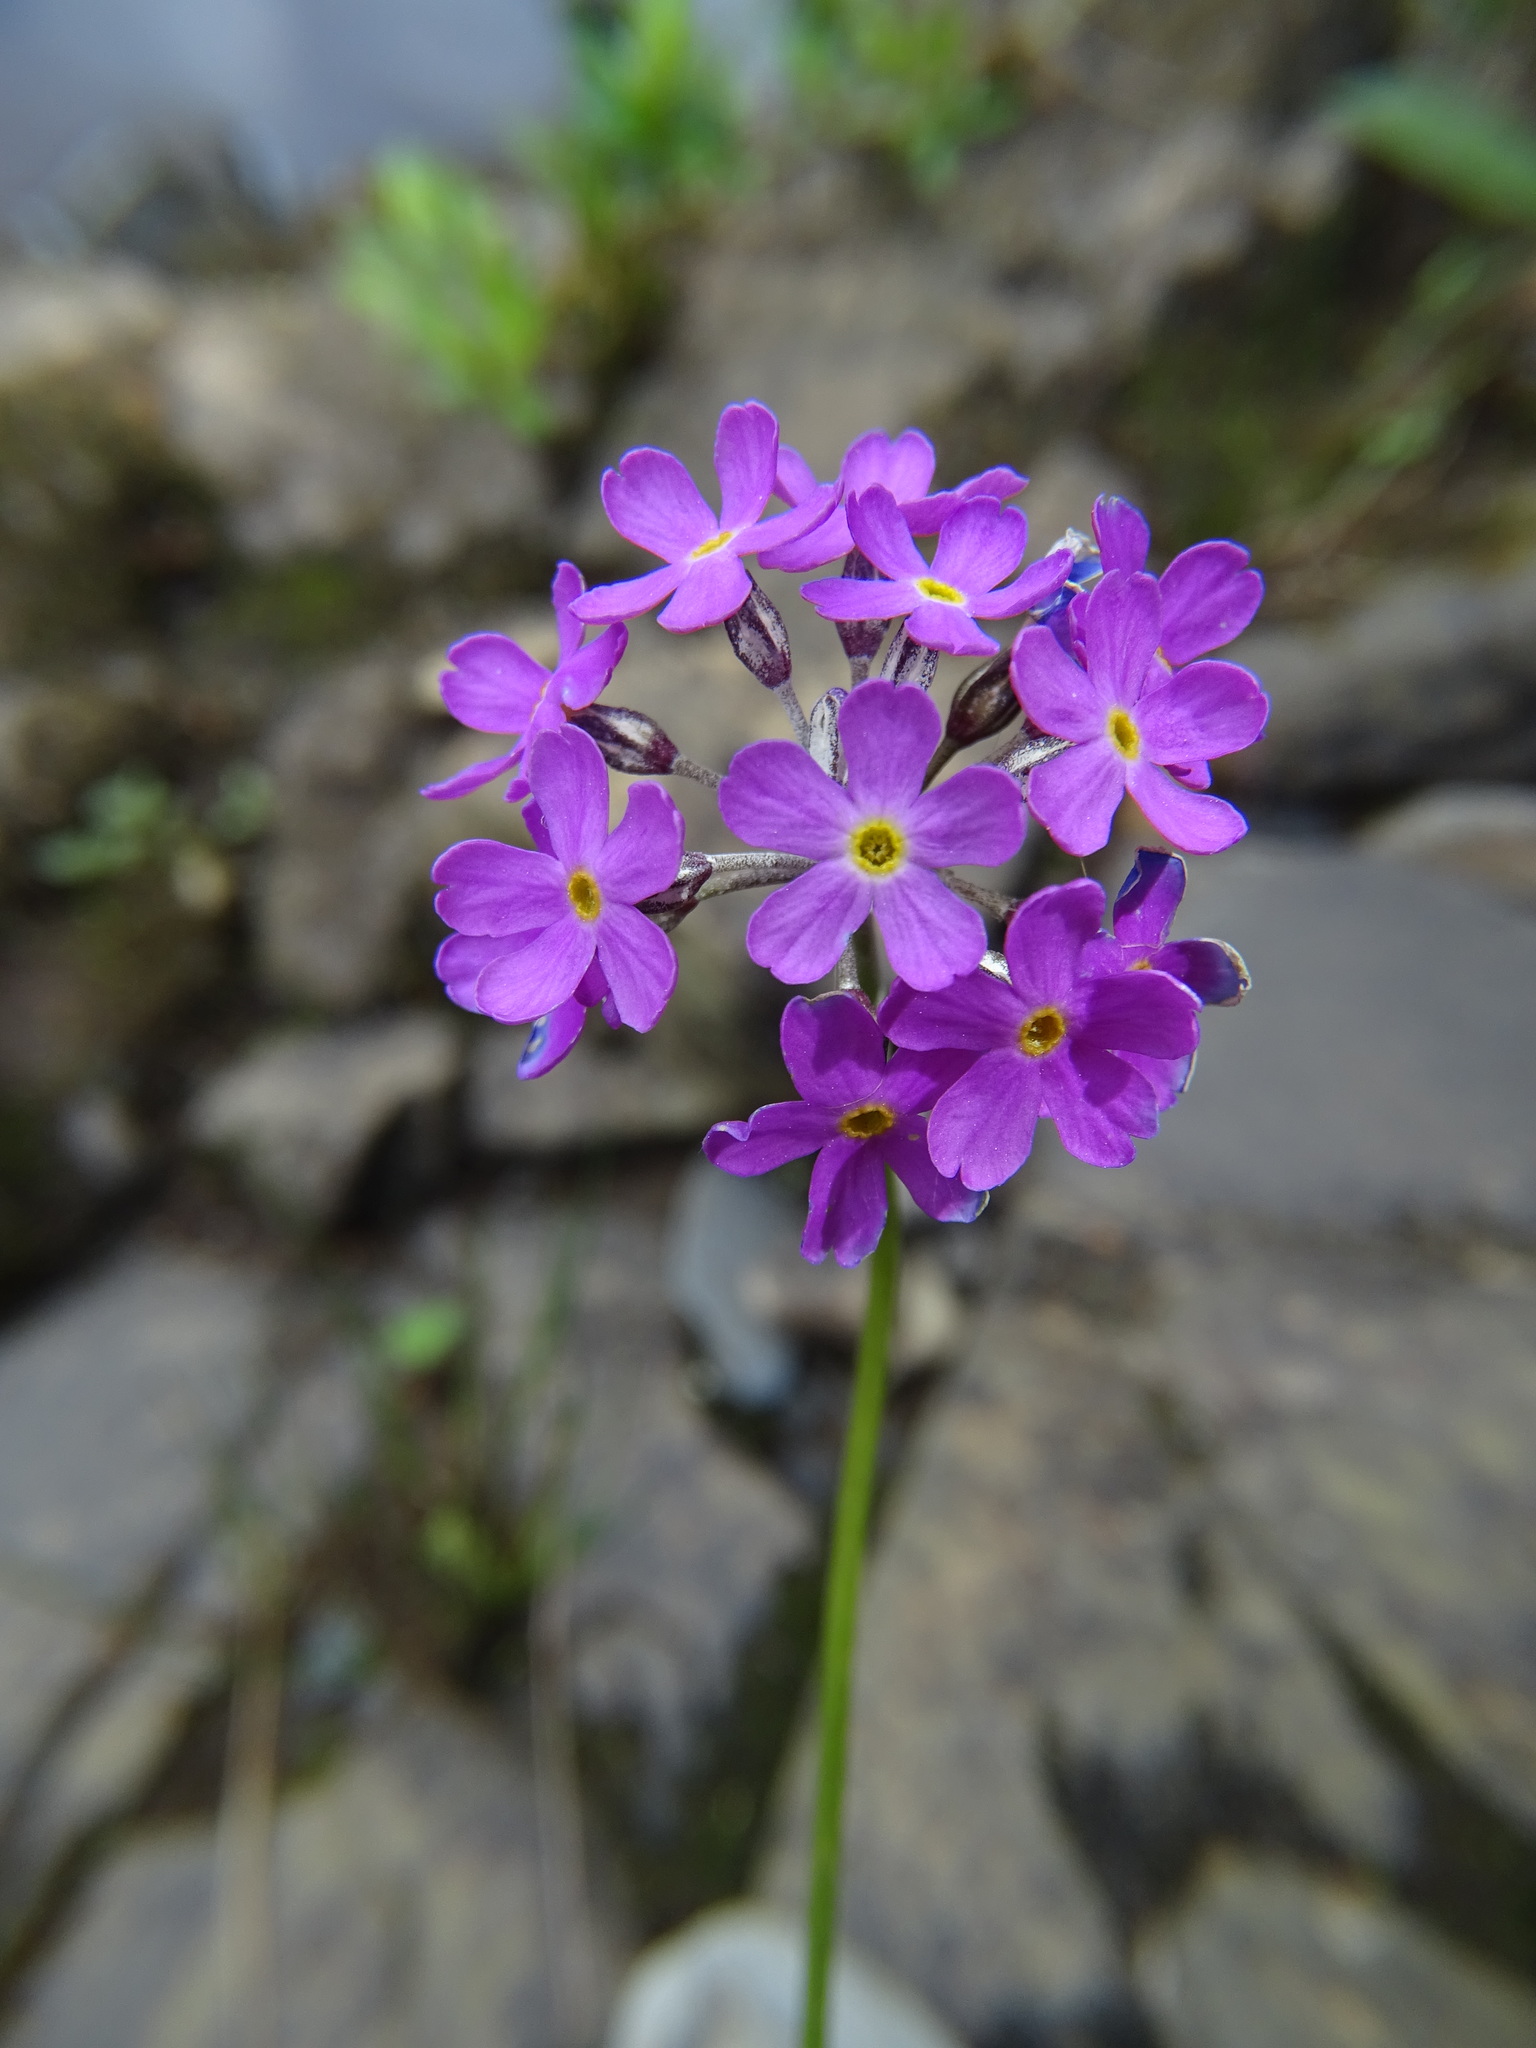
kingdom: Plantae
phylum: Tracheophyta
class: Magnoliopsida
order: Ericales
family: Primulaceae
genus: Primula
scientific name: Primula farinosa
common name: Bird's-eye primrose
